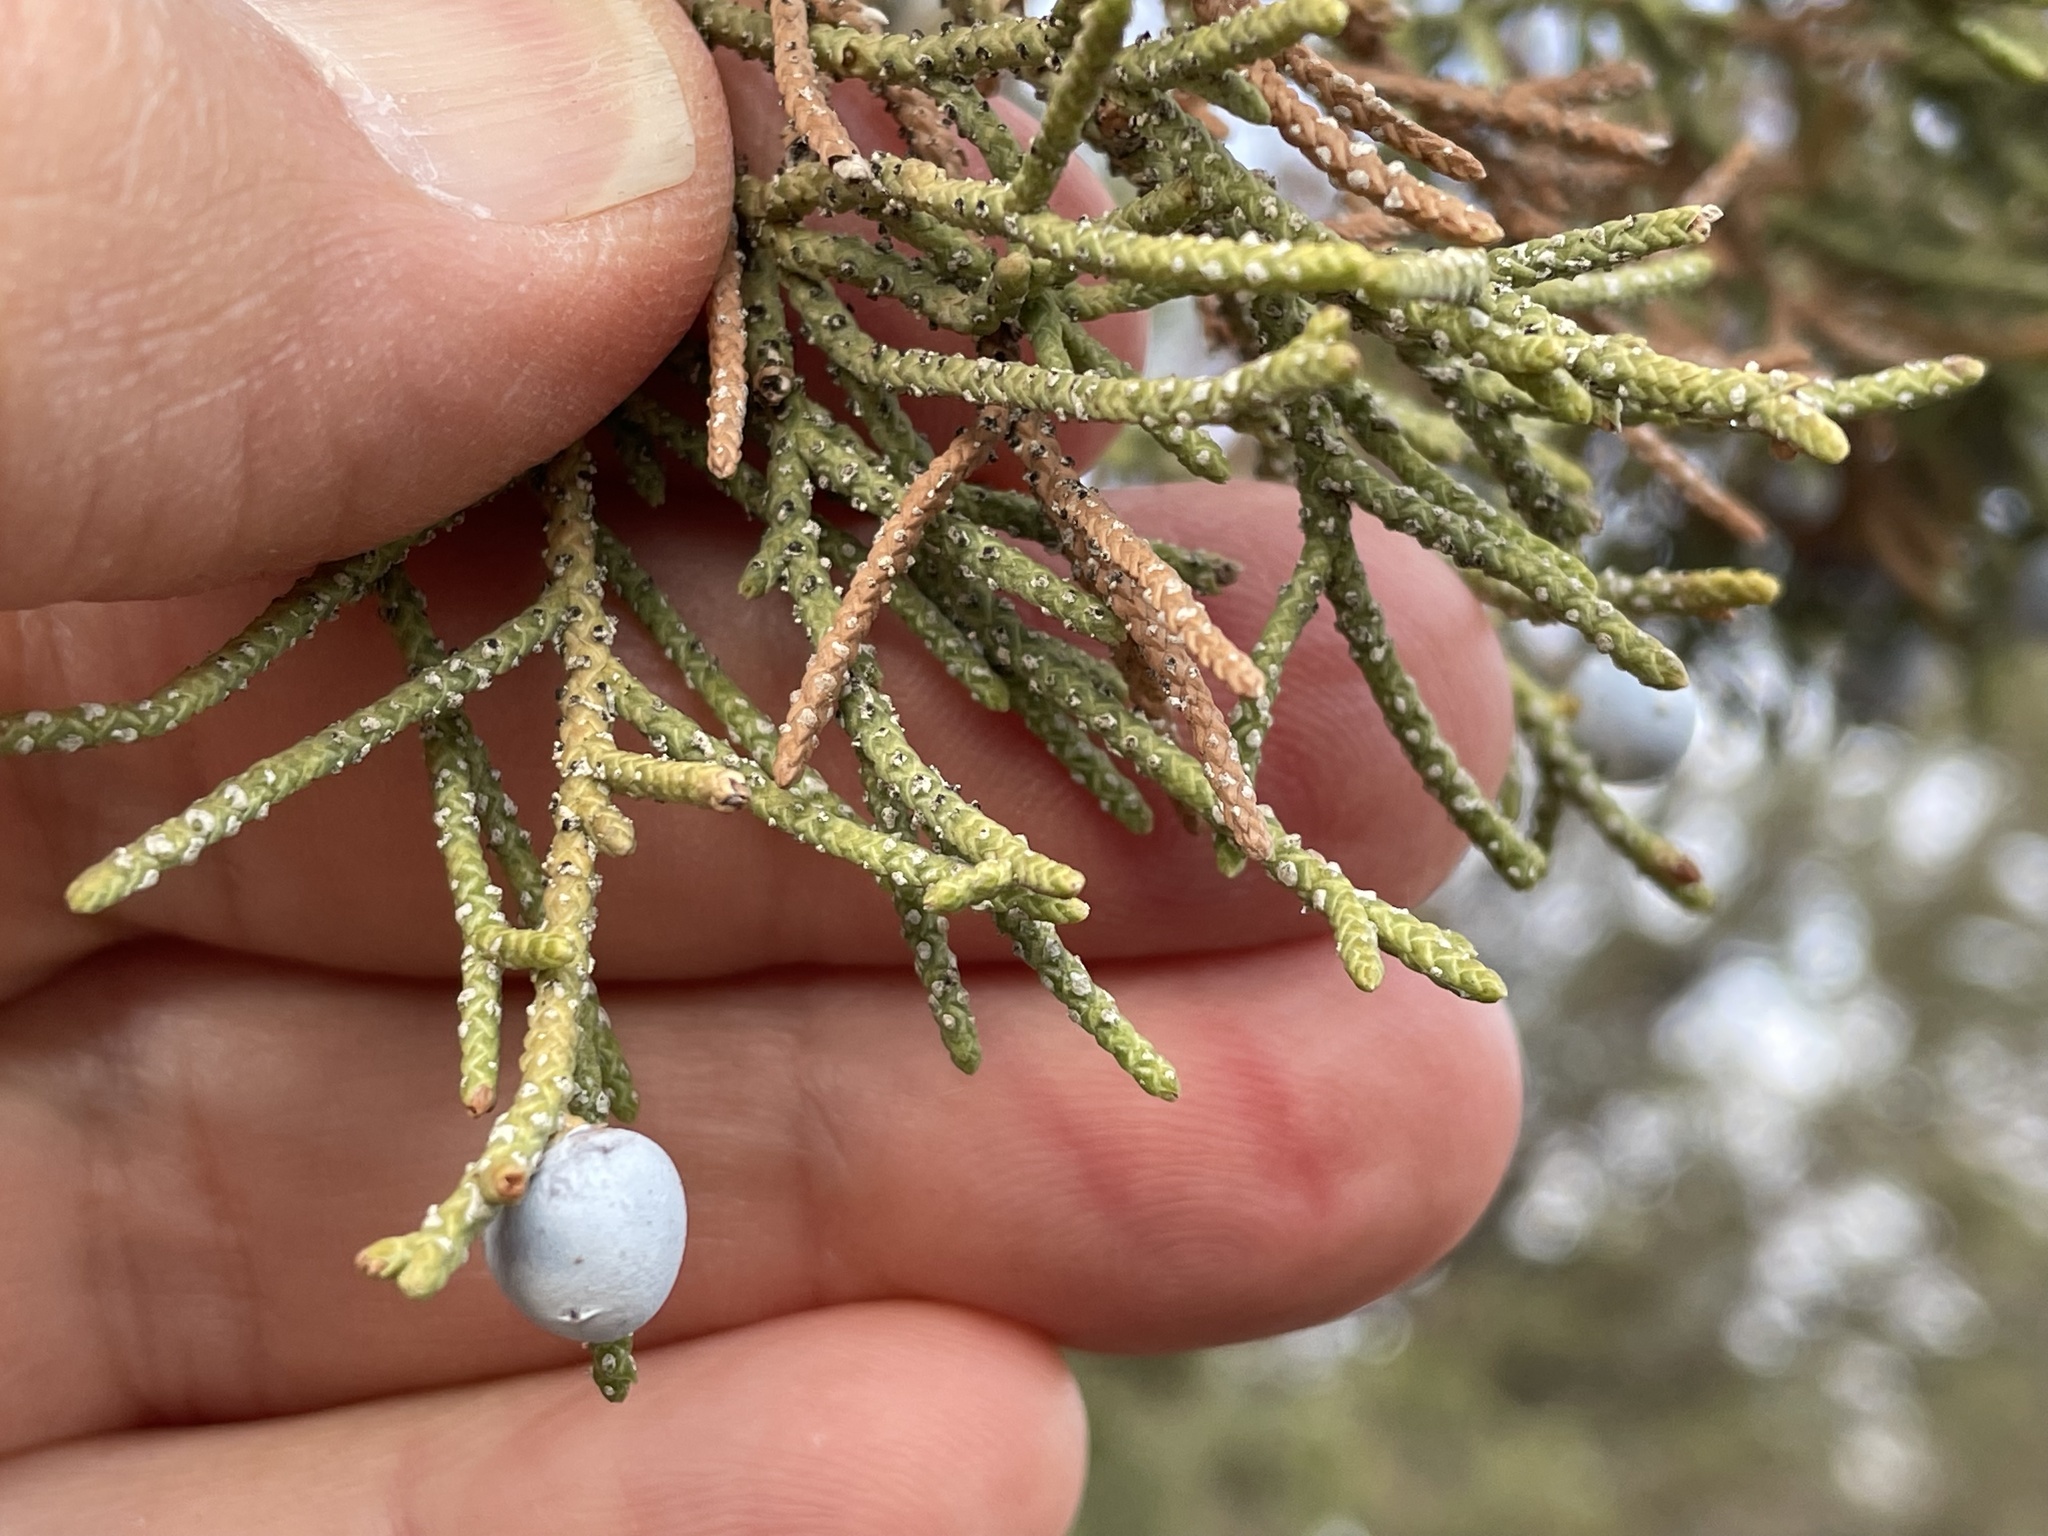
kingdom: Plantae
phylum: Tracheophyta
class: Pinopsida
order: Pinales
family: Cupressaceae
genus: Juniperus
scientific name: Juniperus occidentalis
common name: Western juniper
